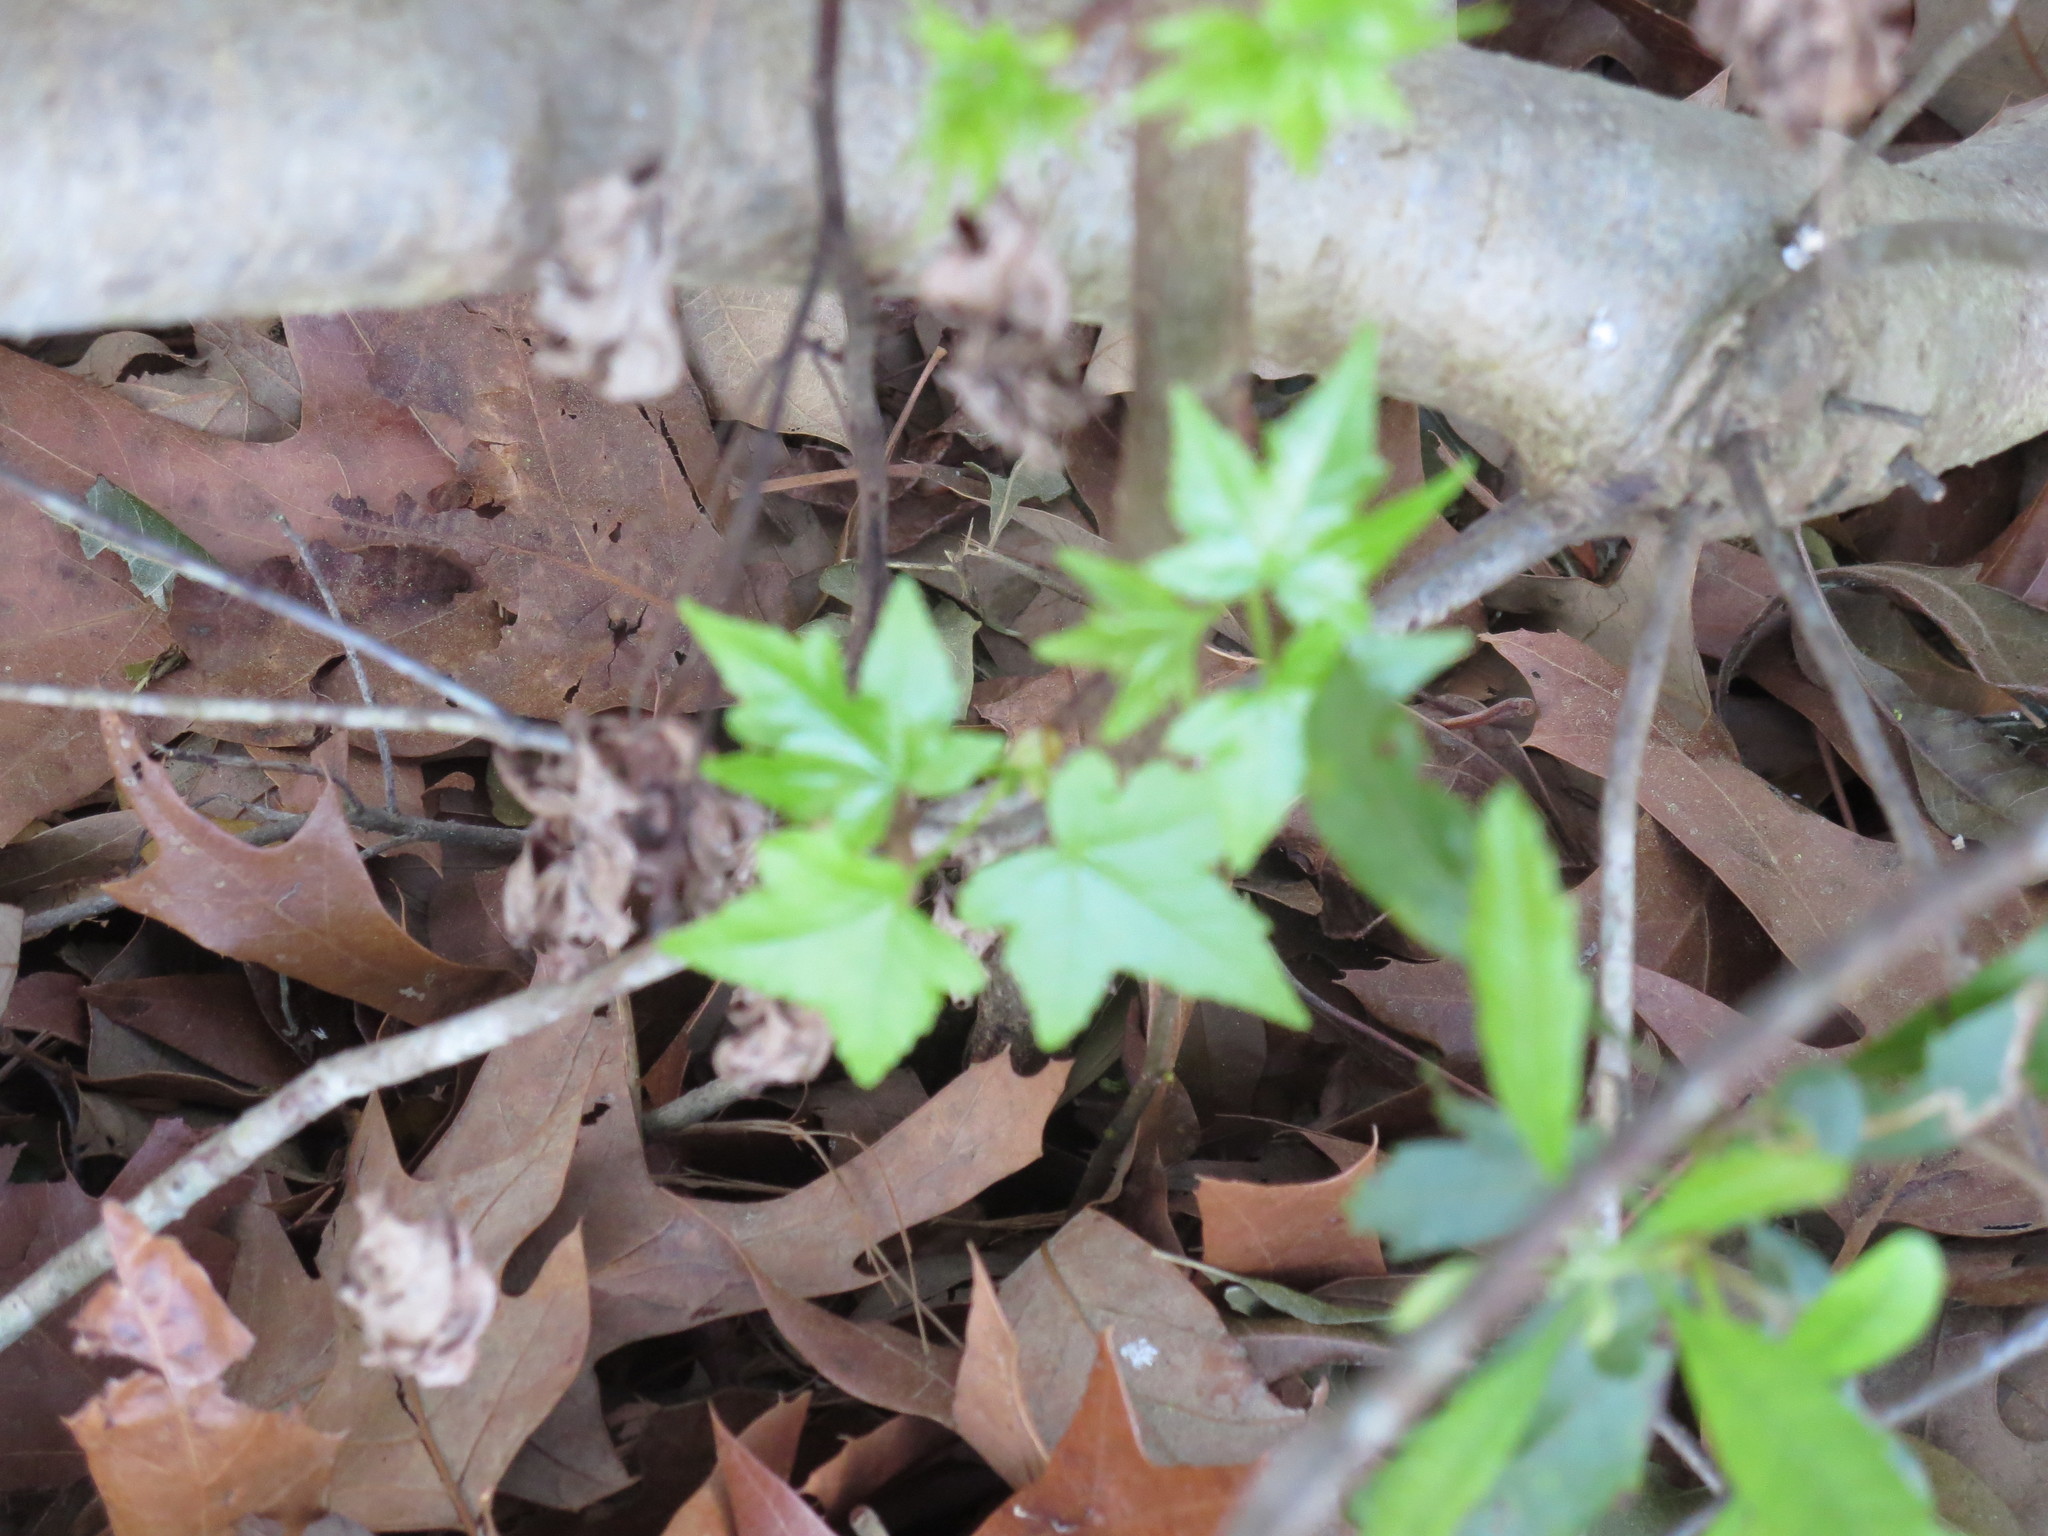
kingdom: Plantae
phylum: Tracheophyta
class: Magnoliopsida
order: Saxifragales
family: Altingiaceae
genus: Liquidambar
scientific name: Liquidambar styraciflua
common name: Sweet gum
